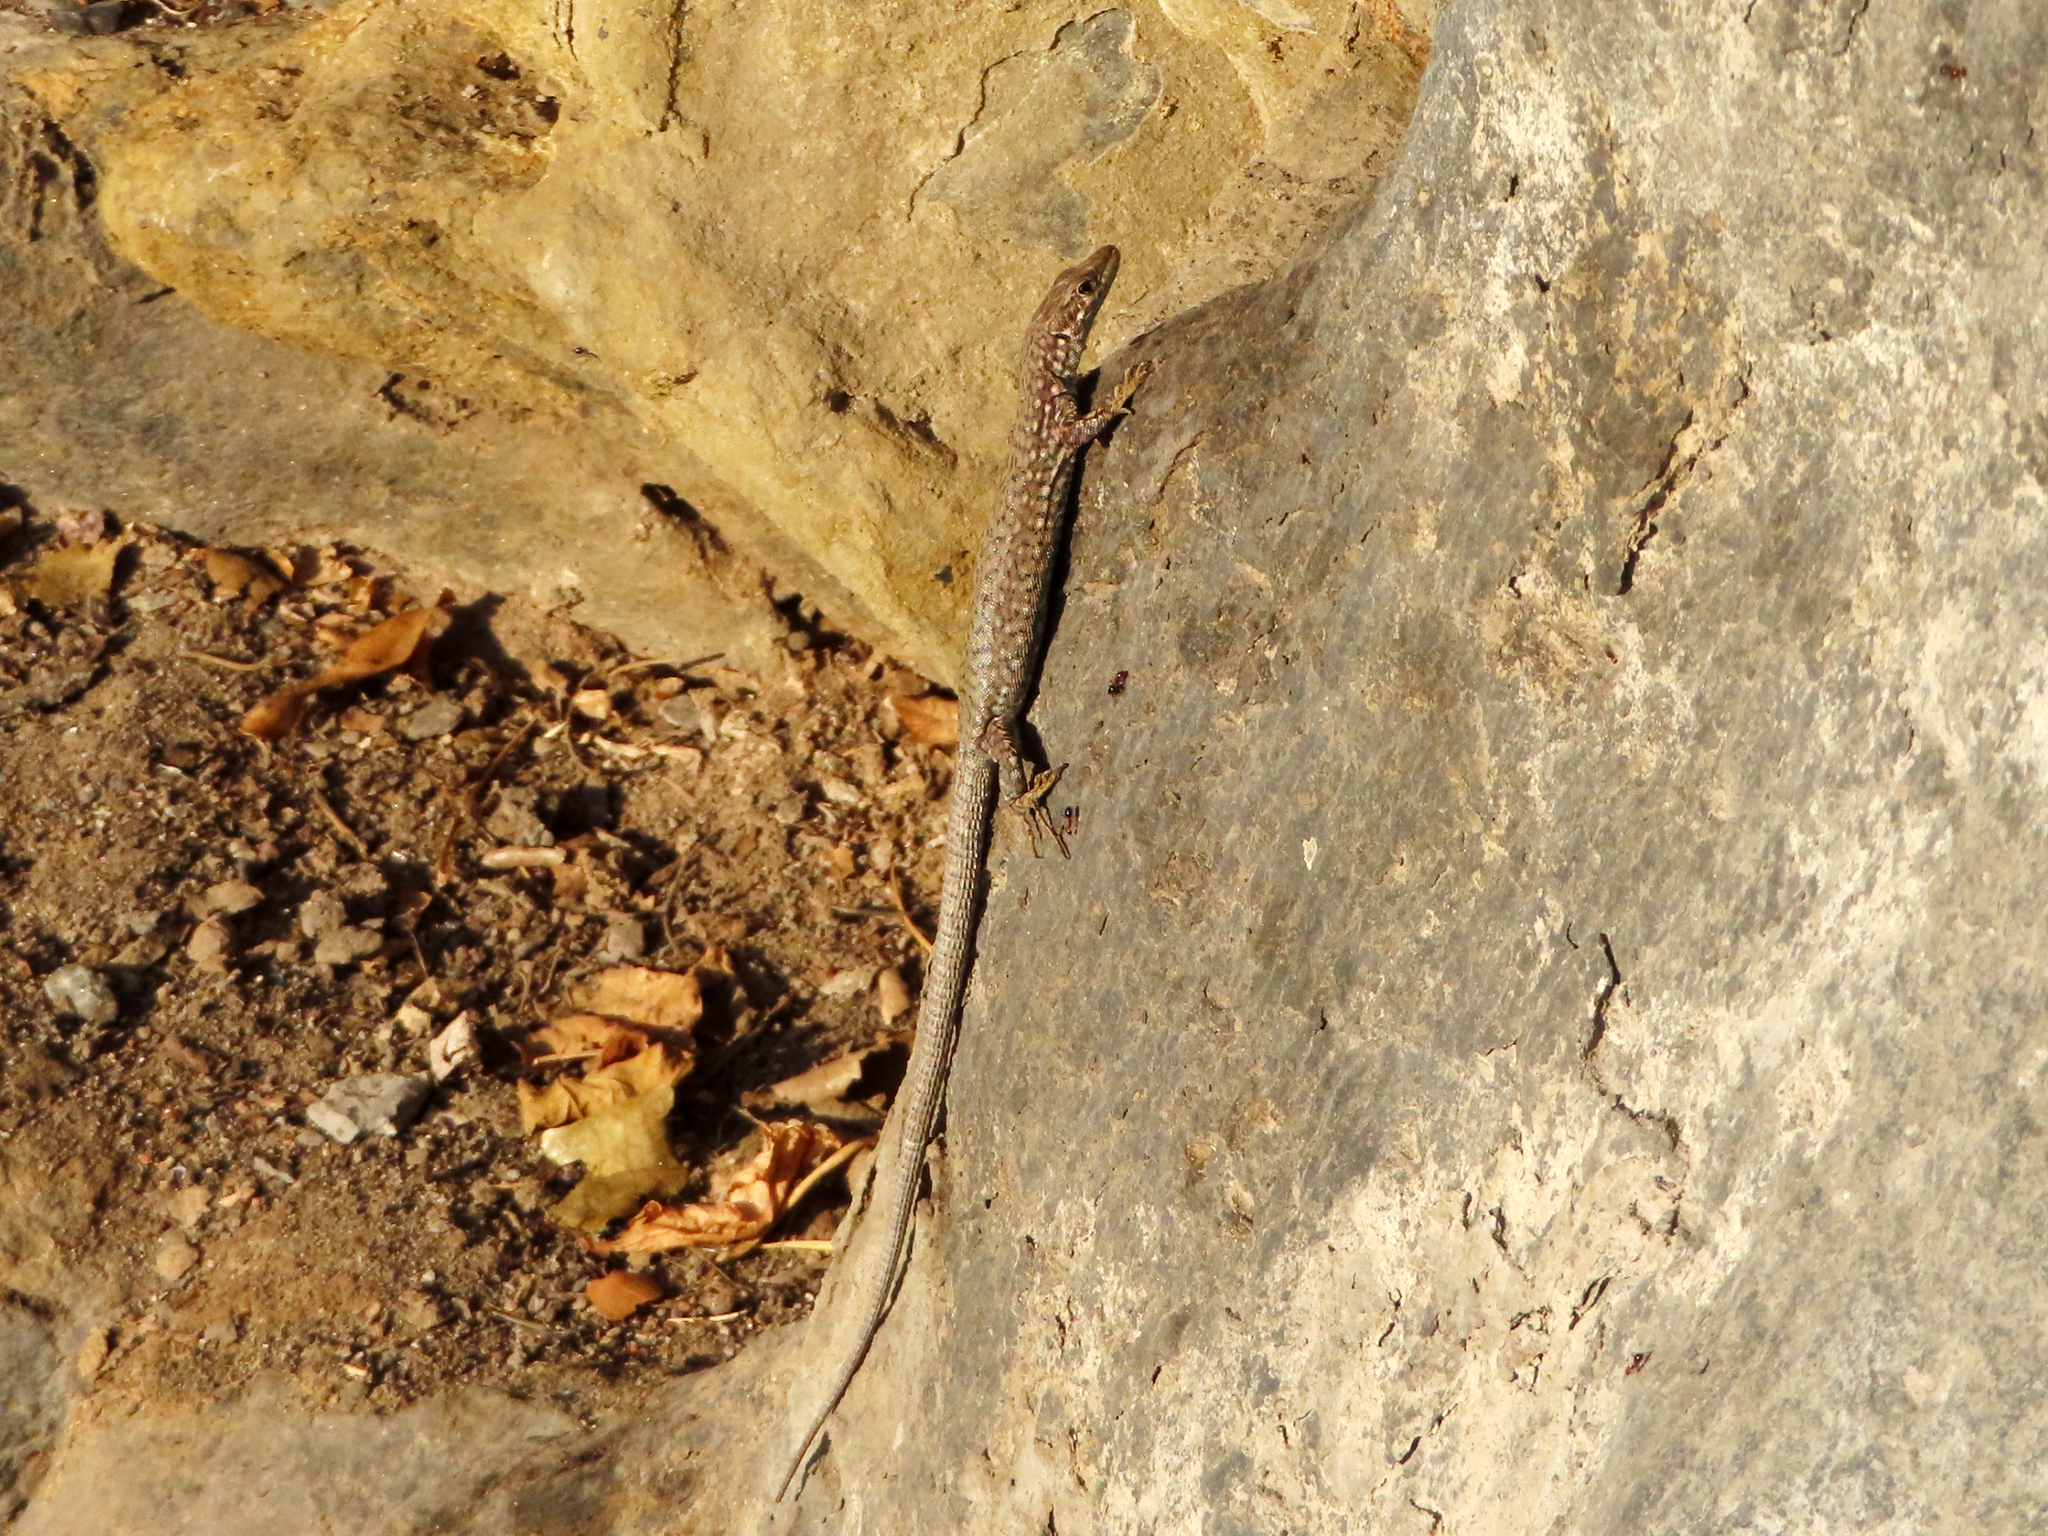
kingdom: Animalia
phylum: Chordata
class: Squamata
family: Lacertidae
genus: Darevskia
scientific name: Darevskia
